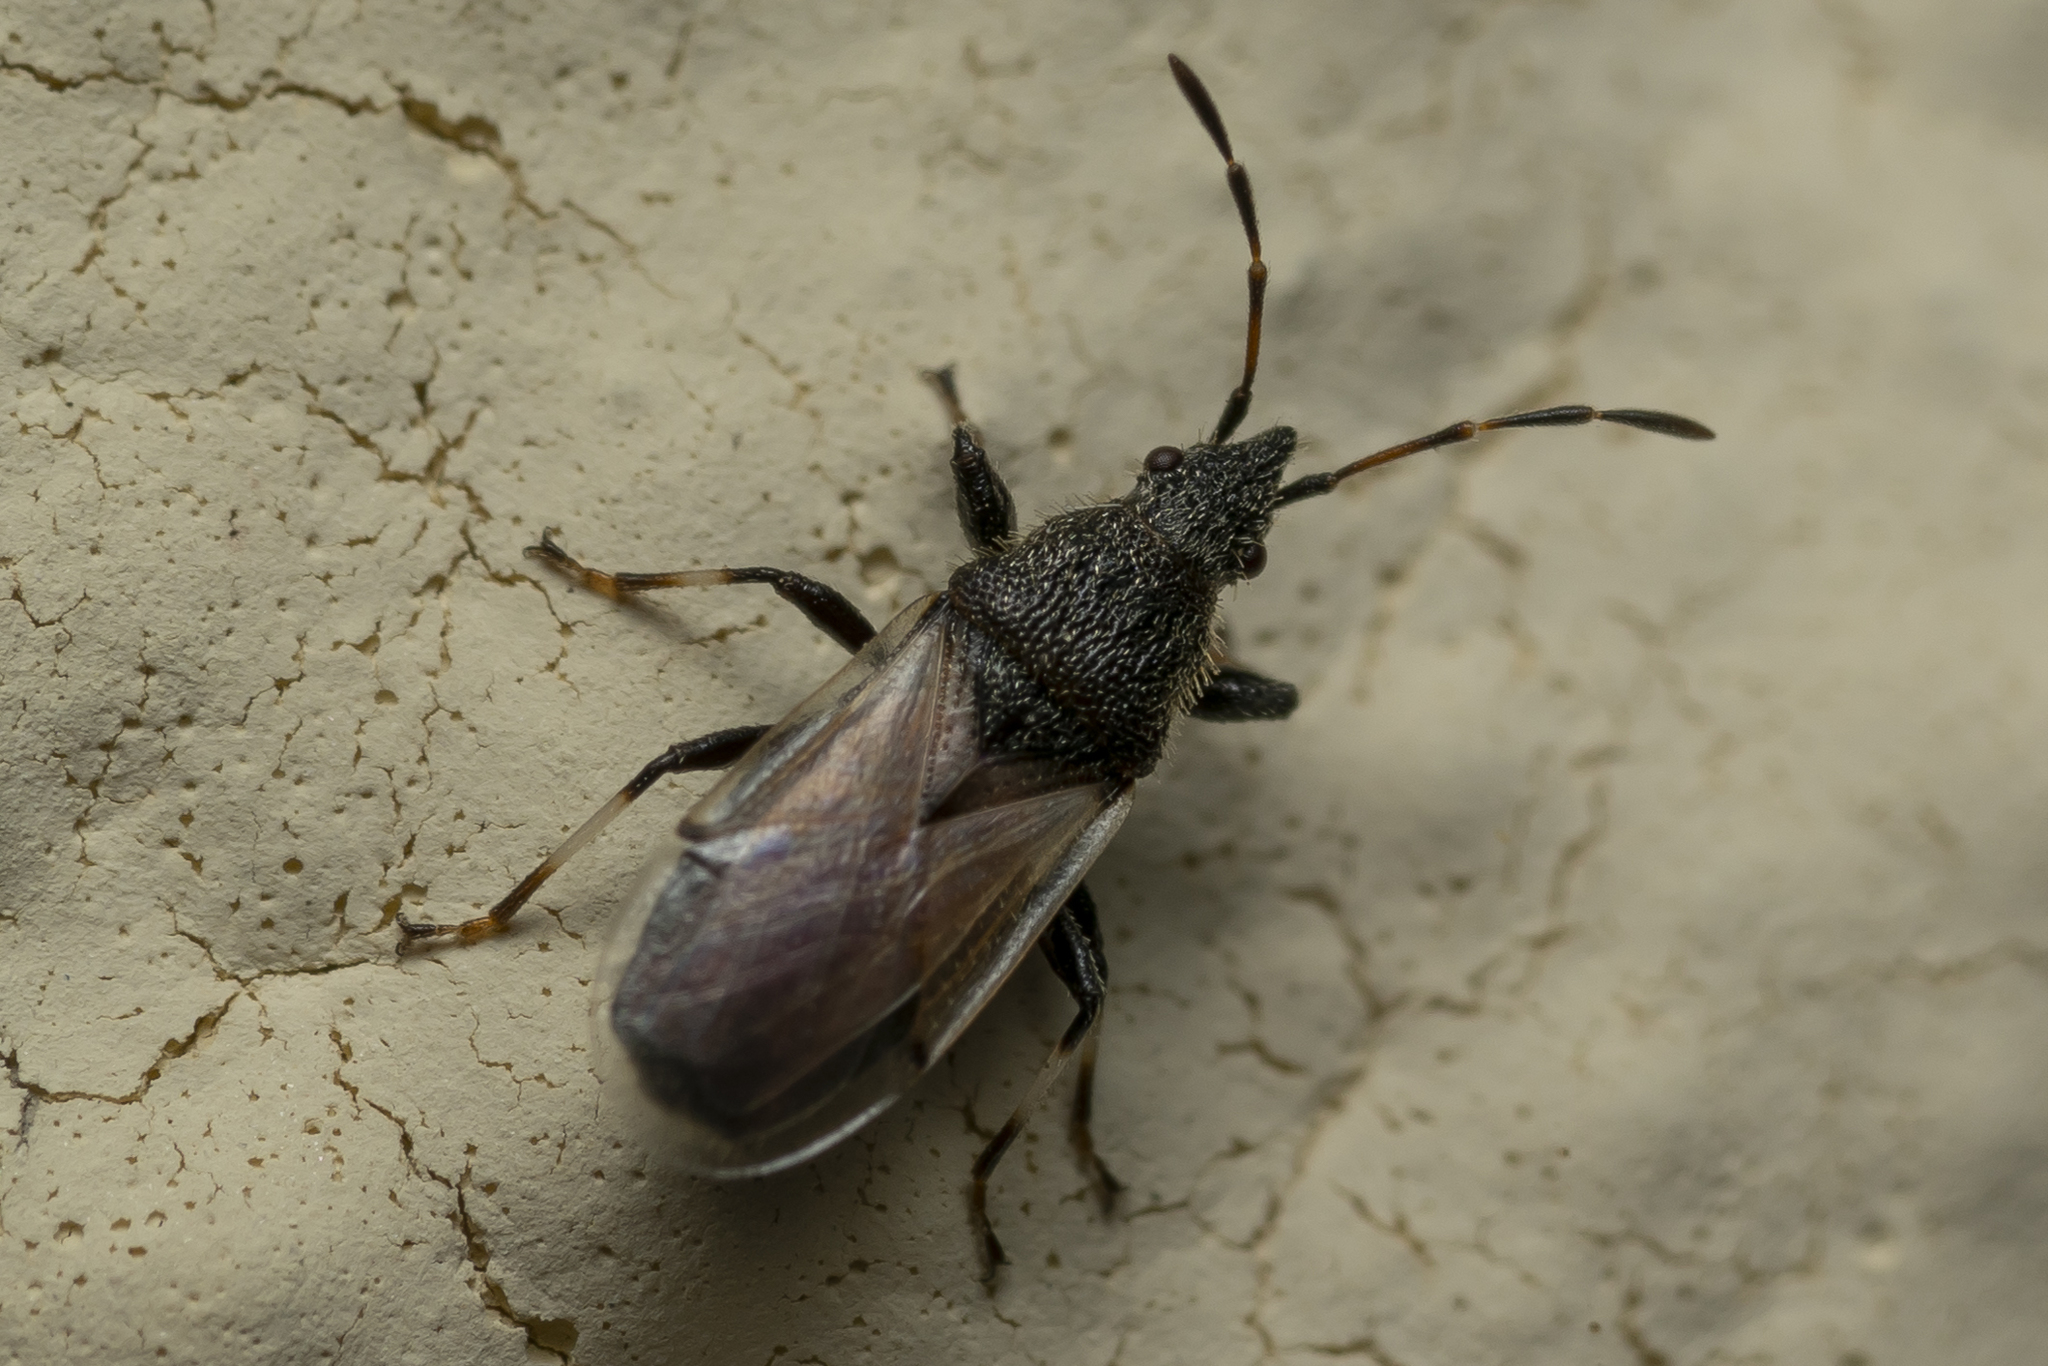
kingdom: Animalia
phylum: Arthropoda
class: Insecta
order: Hemiptera
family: Oxycarenidae
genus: Oxycarenus
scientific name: Oxycarenus hyalinipennis
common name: Cotton seed bug
